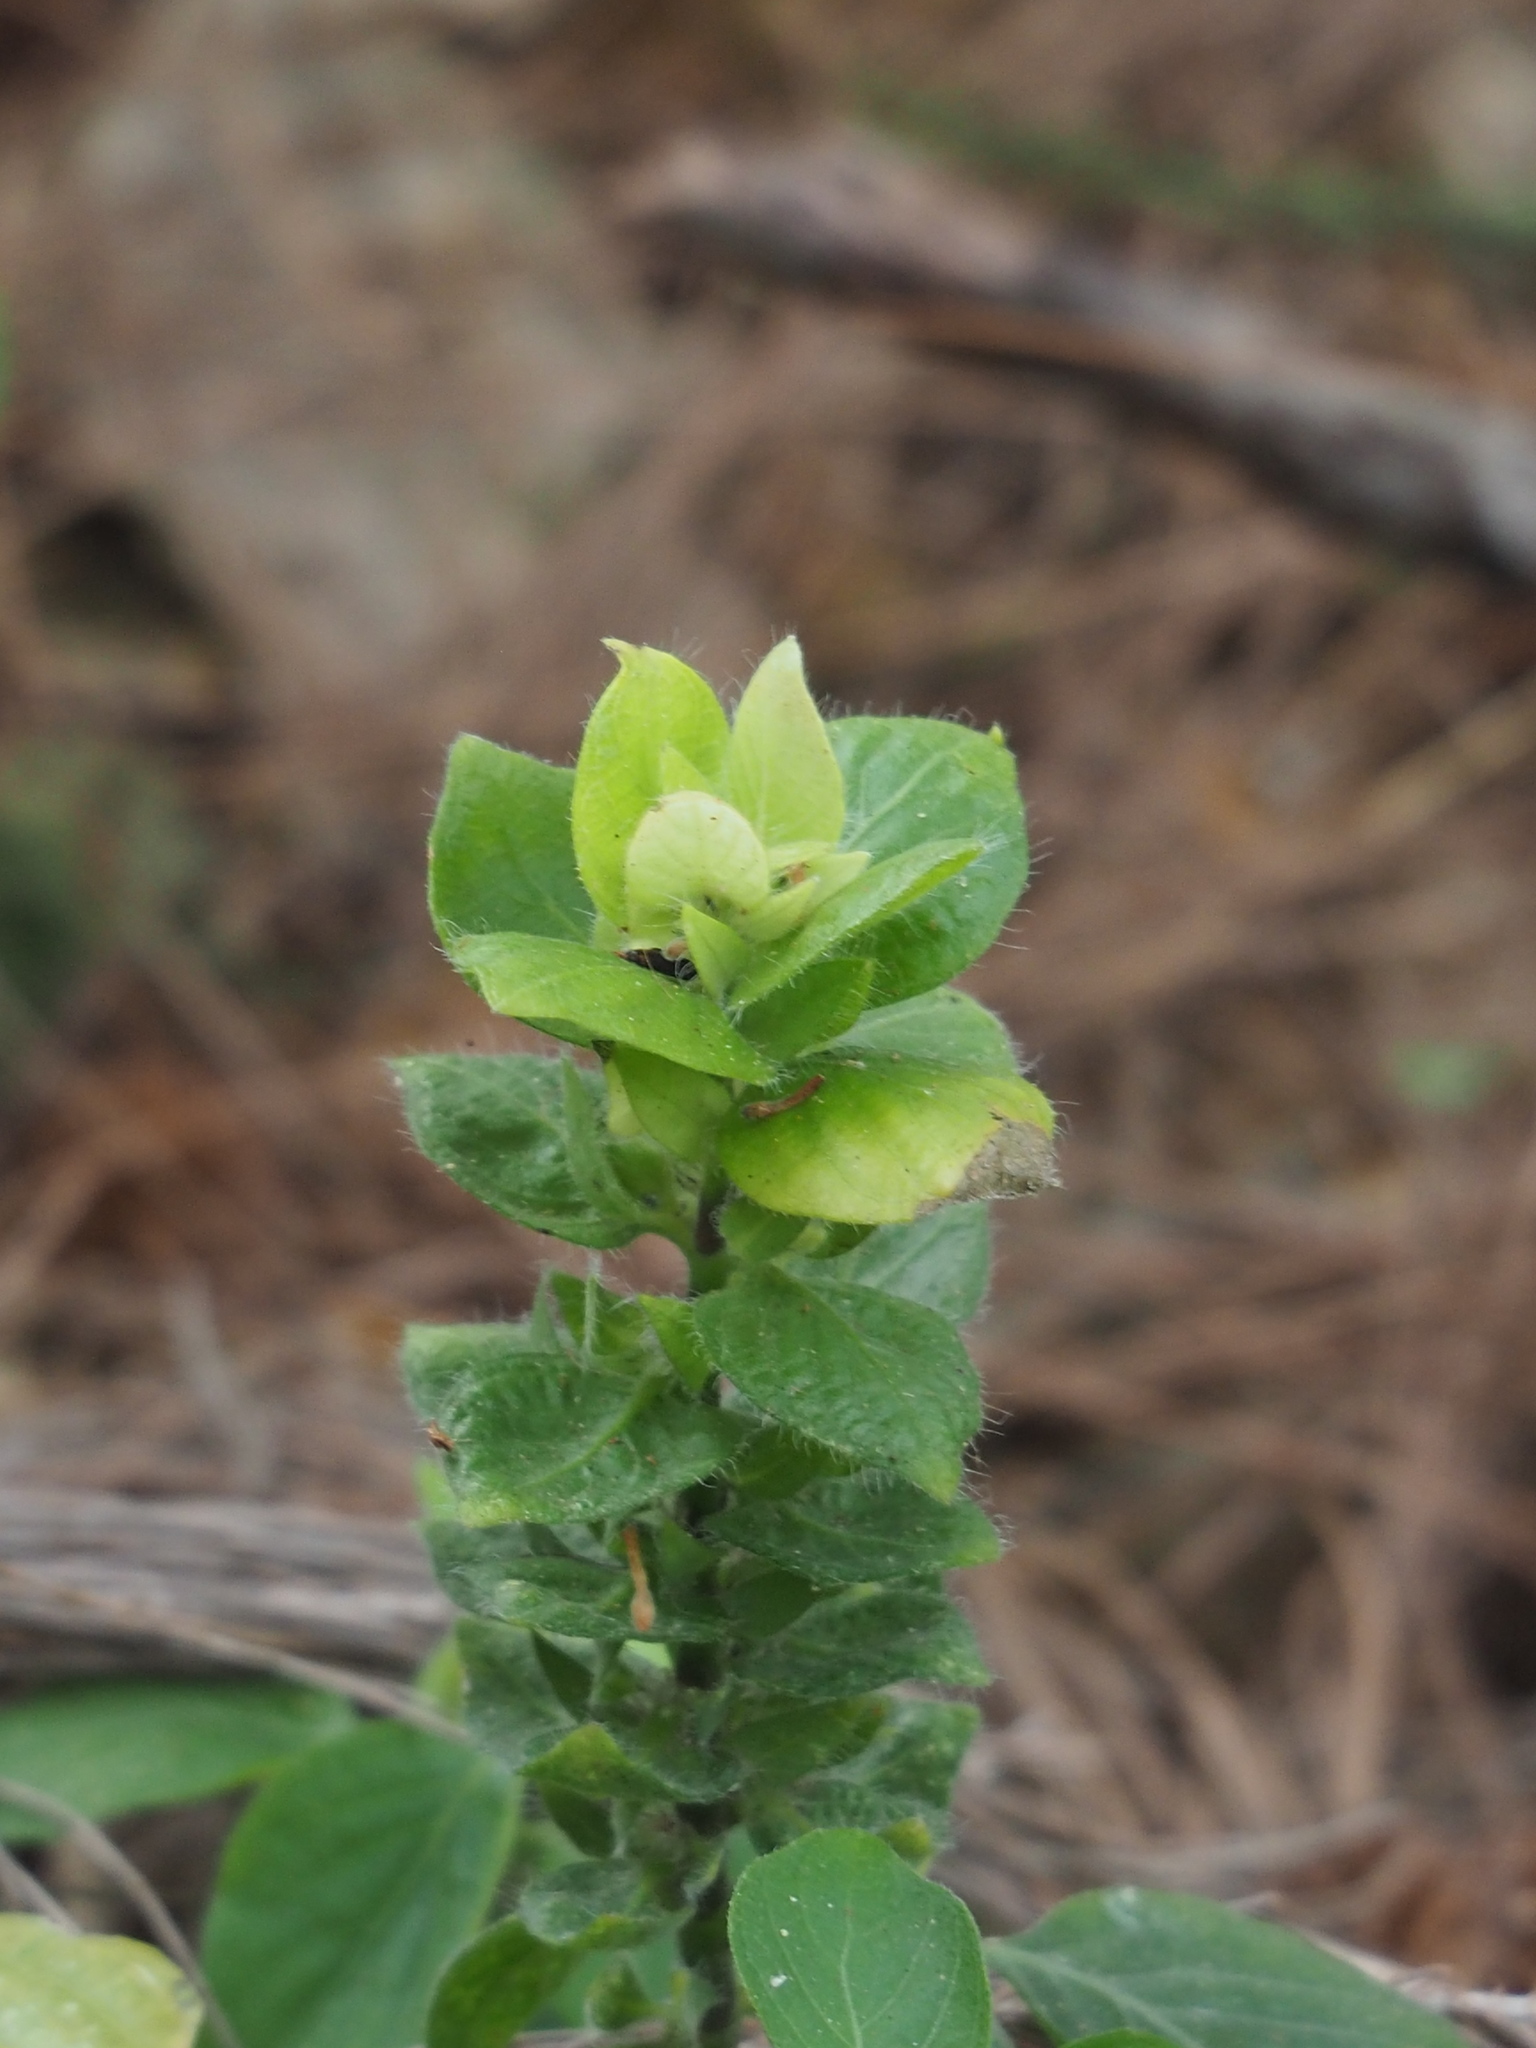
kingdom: Plantae
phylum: Tracheophyta
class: Magnoliopsida
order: Lamiales
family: Acanthaceae
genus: Ruellia
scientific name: Ruellia blechum
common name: Browne's blechum
